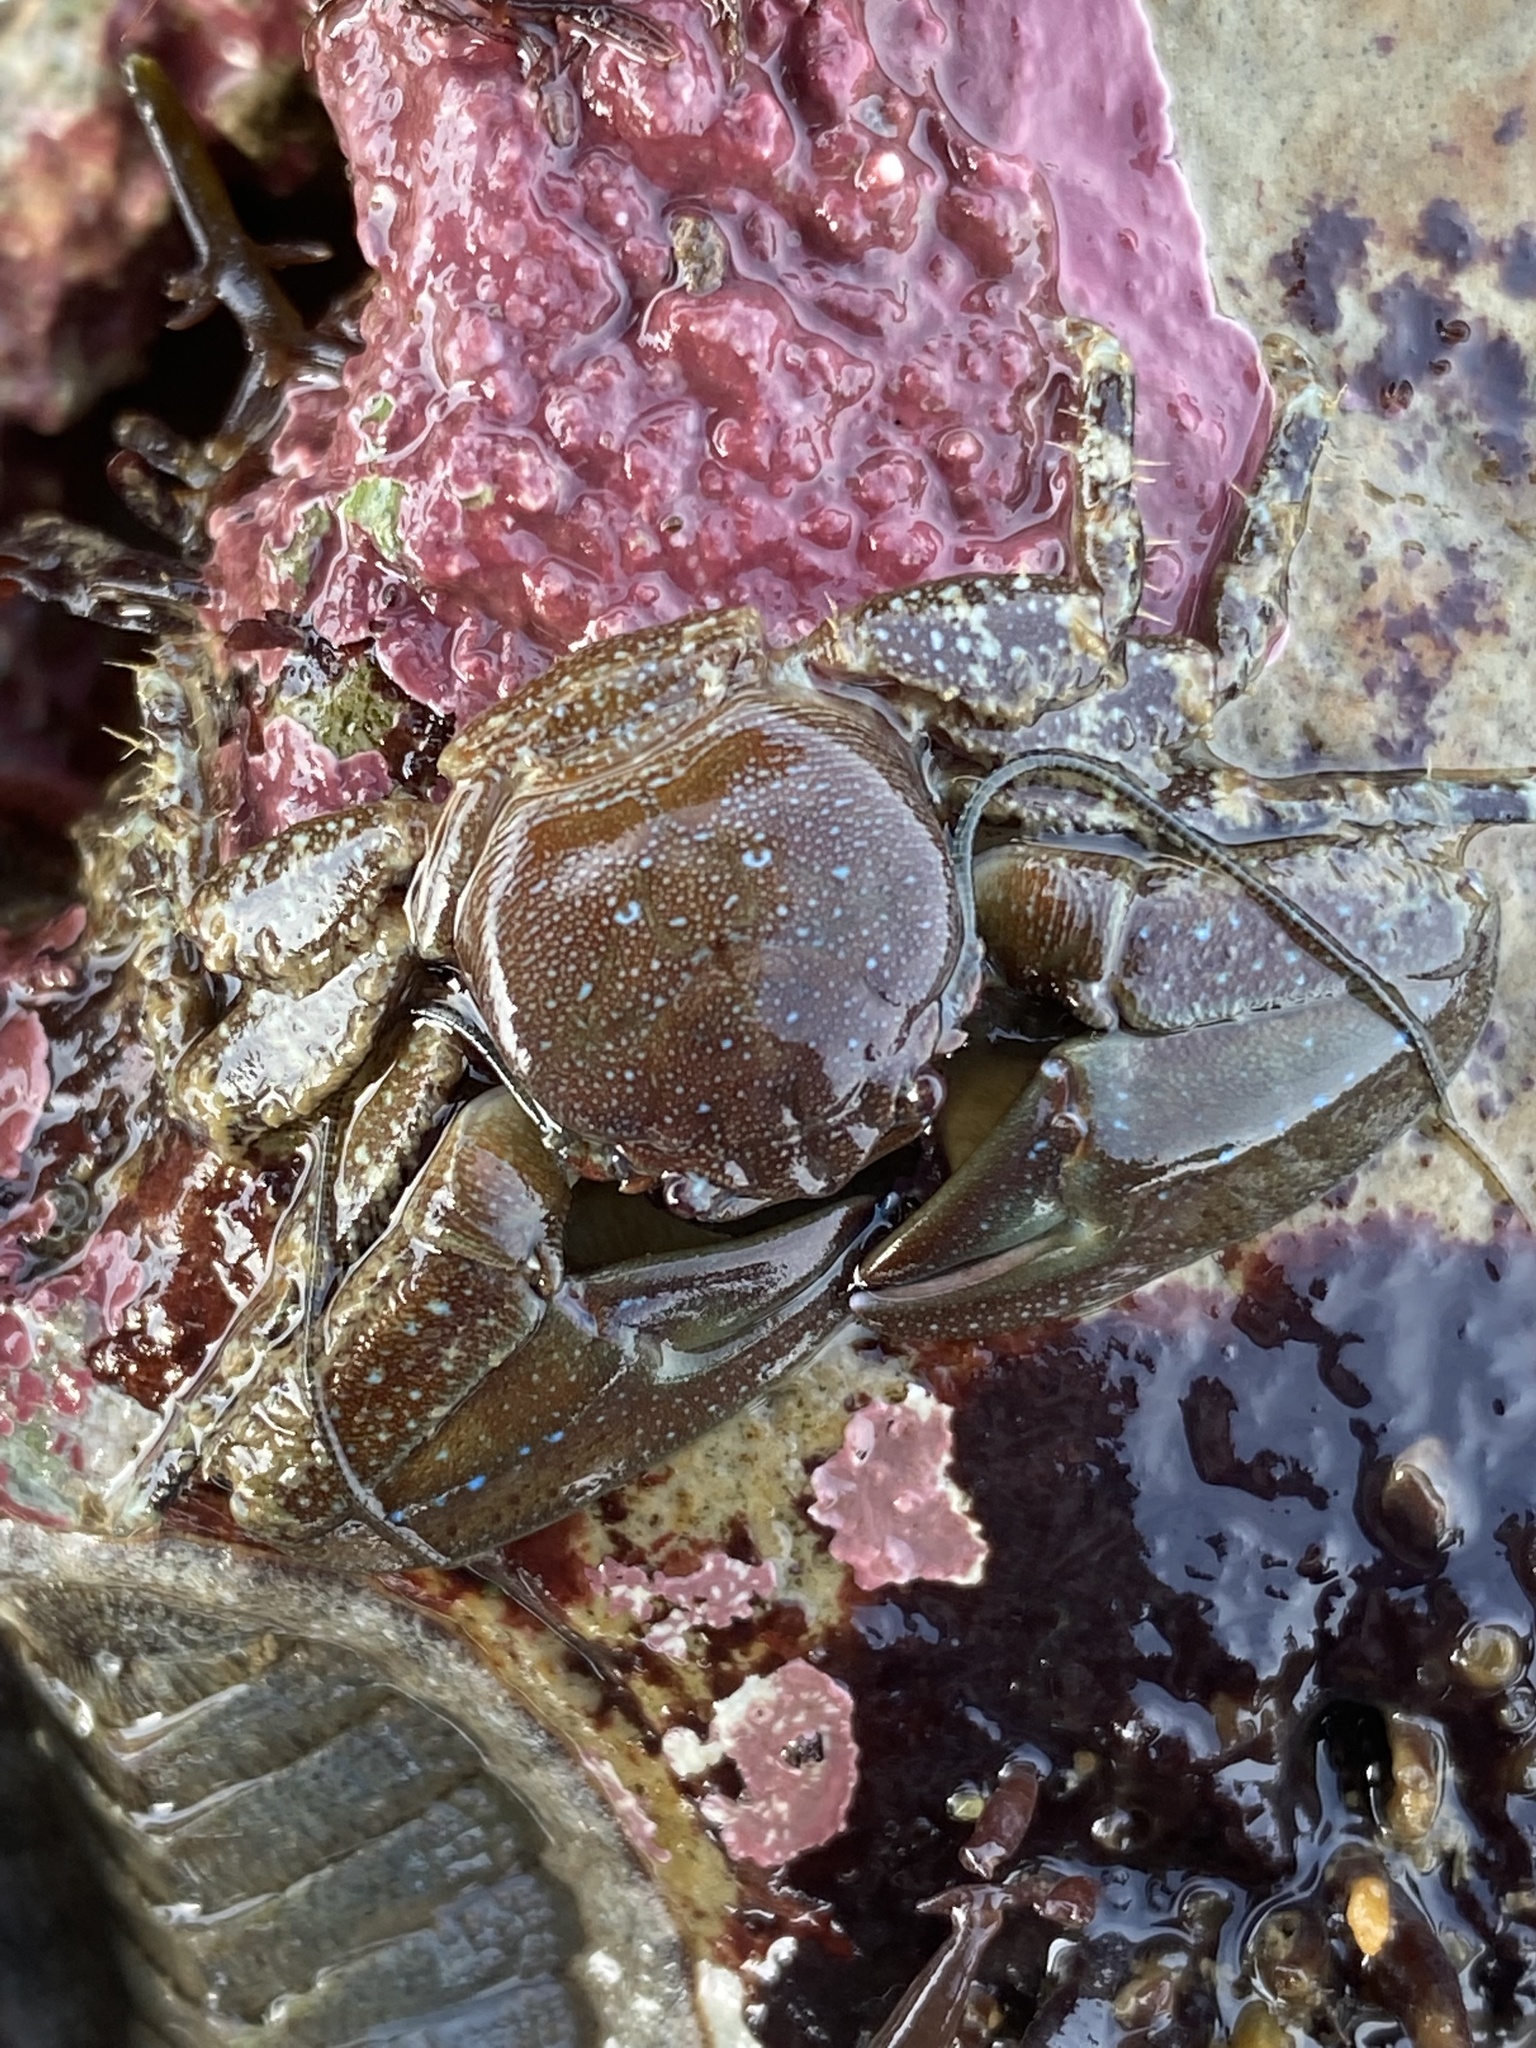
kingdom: Animalia
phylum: Arthropoda
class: Malacostraca
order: Decapoda
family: Porcellanidae
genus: Petrolisthes
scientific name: Petrolisthes manimaculis
